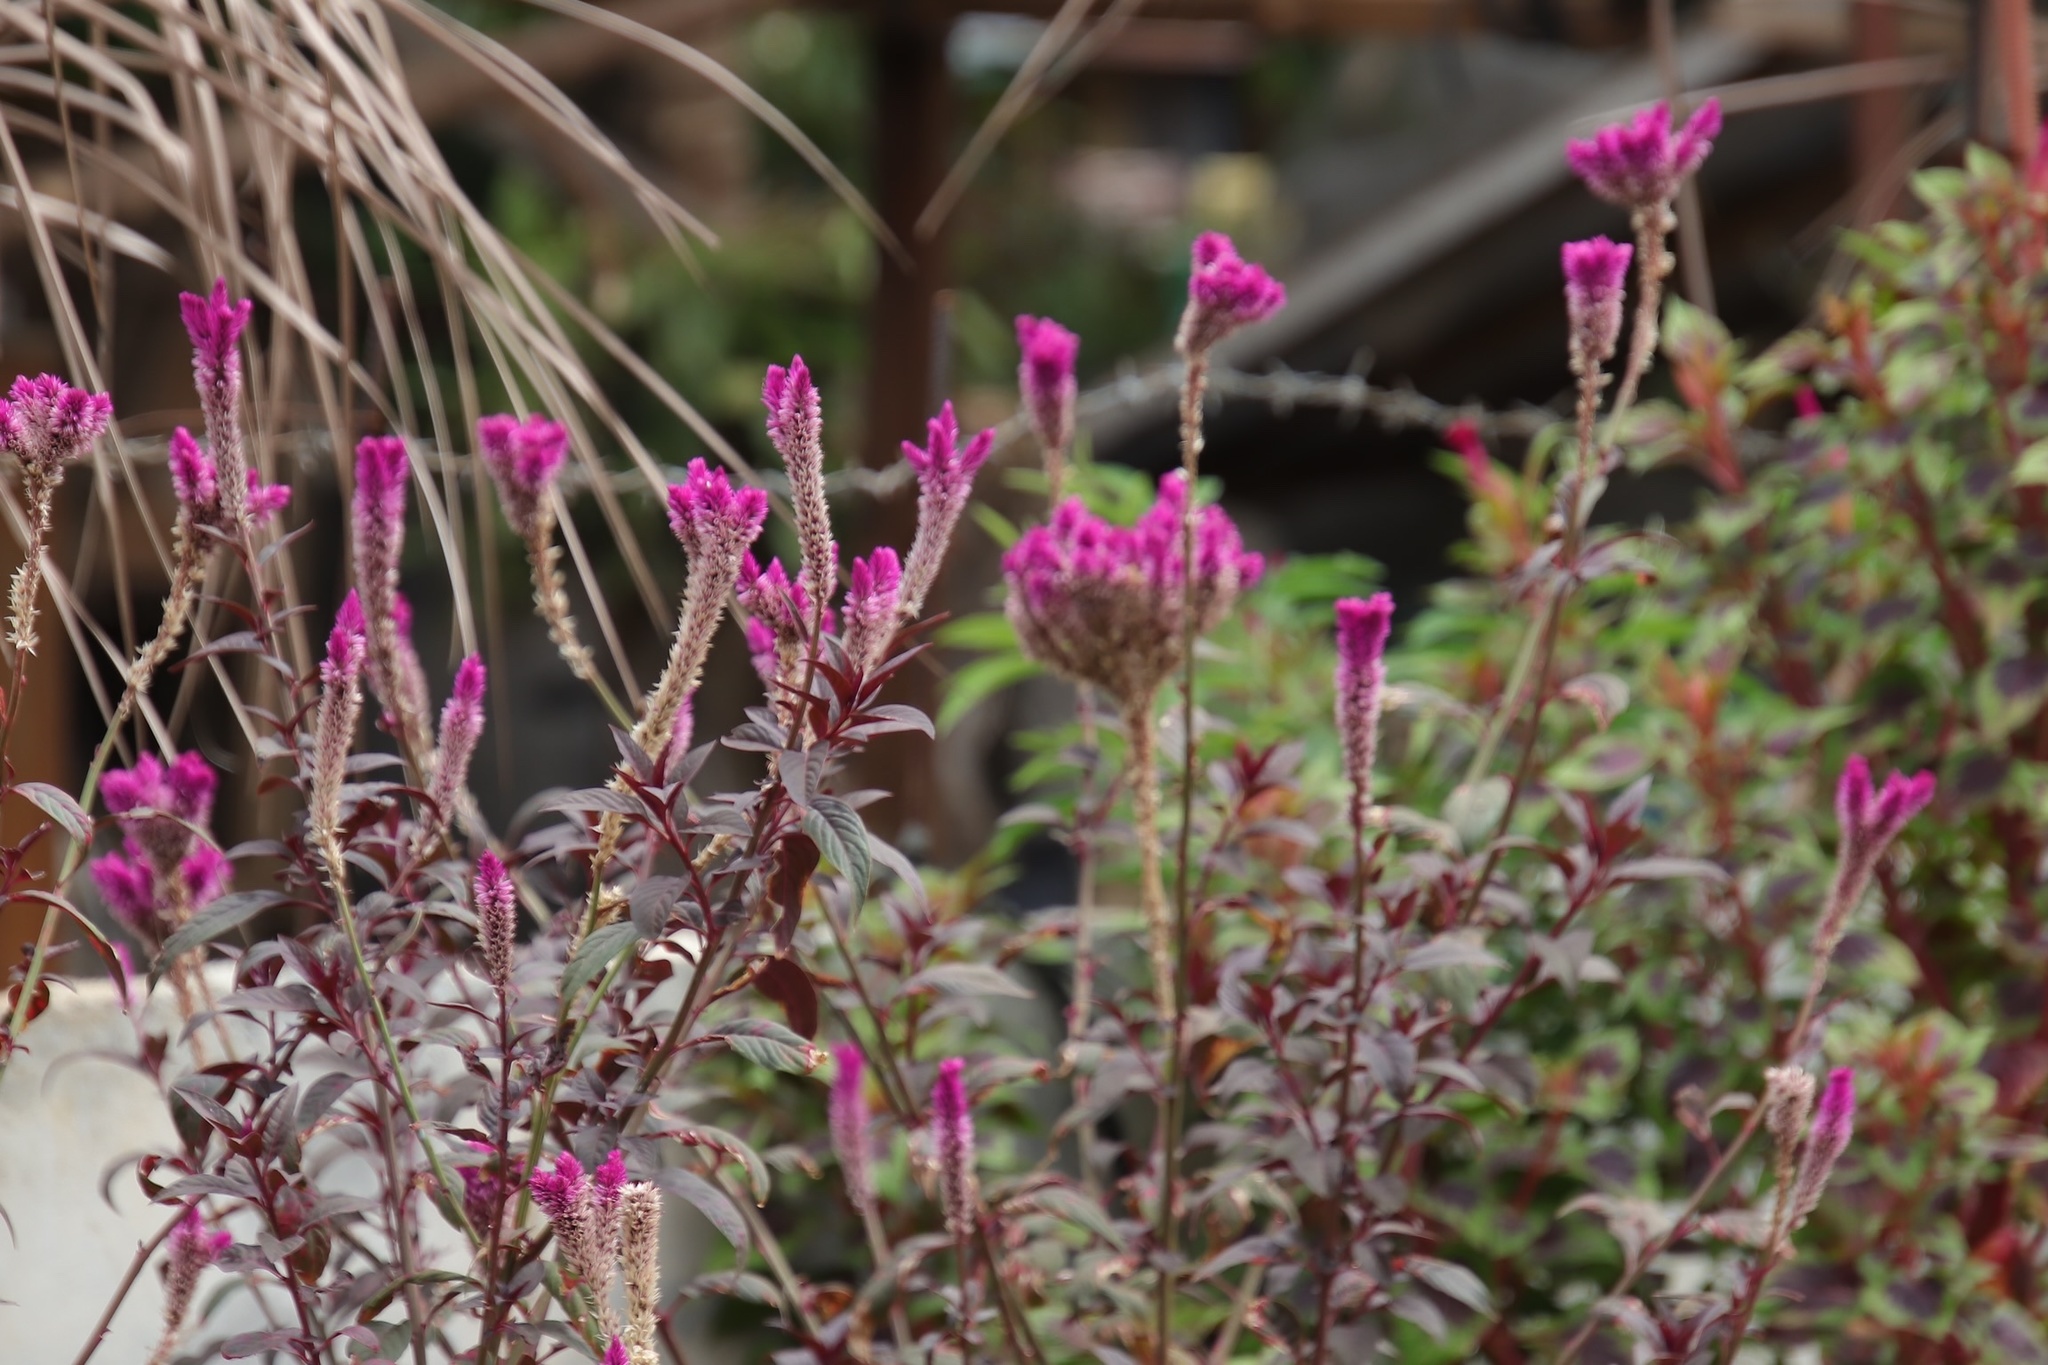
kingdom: Plantae
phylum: Tracheophyta
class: Magnoliopsida
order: Caryophyllales
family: Amaranthaceae
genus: Celosia
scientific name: Celosia spicata
